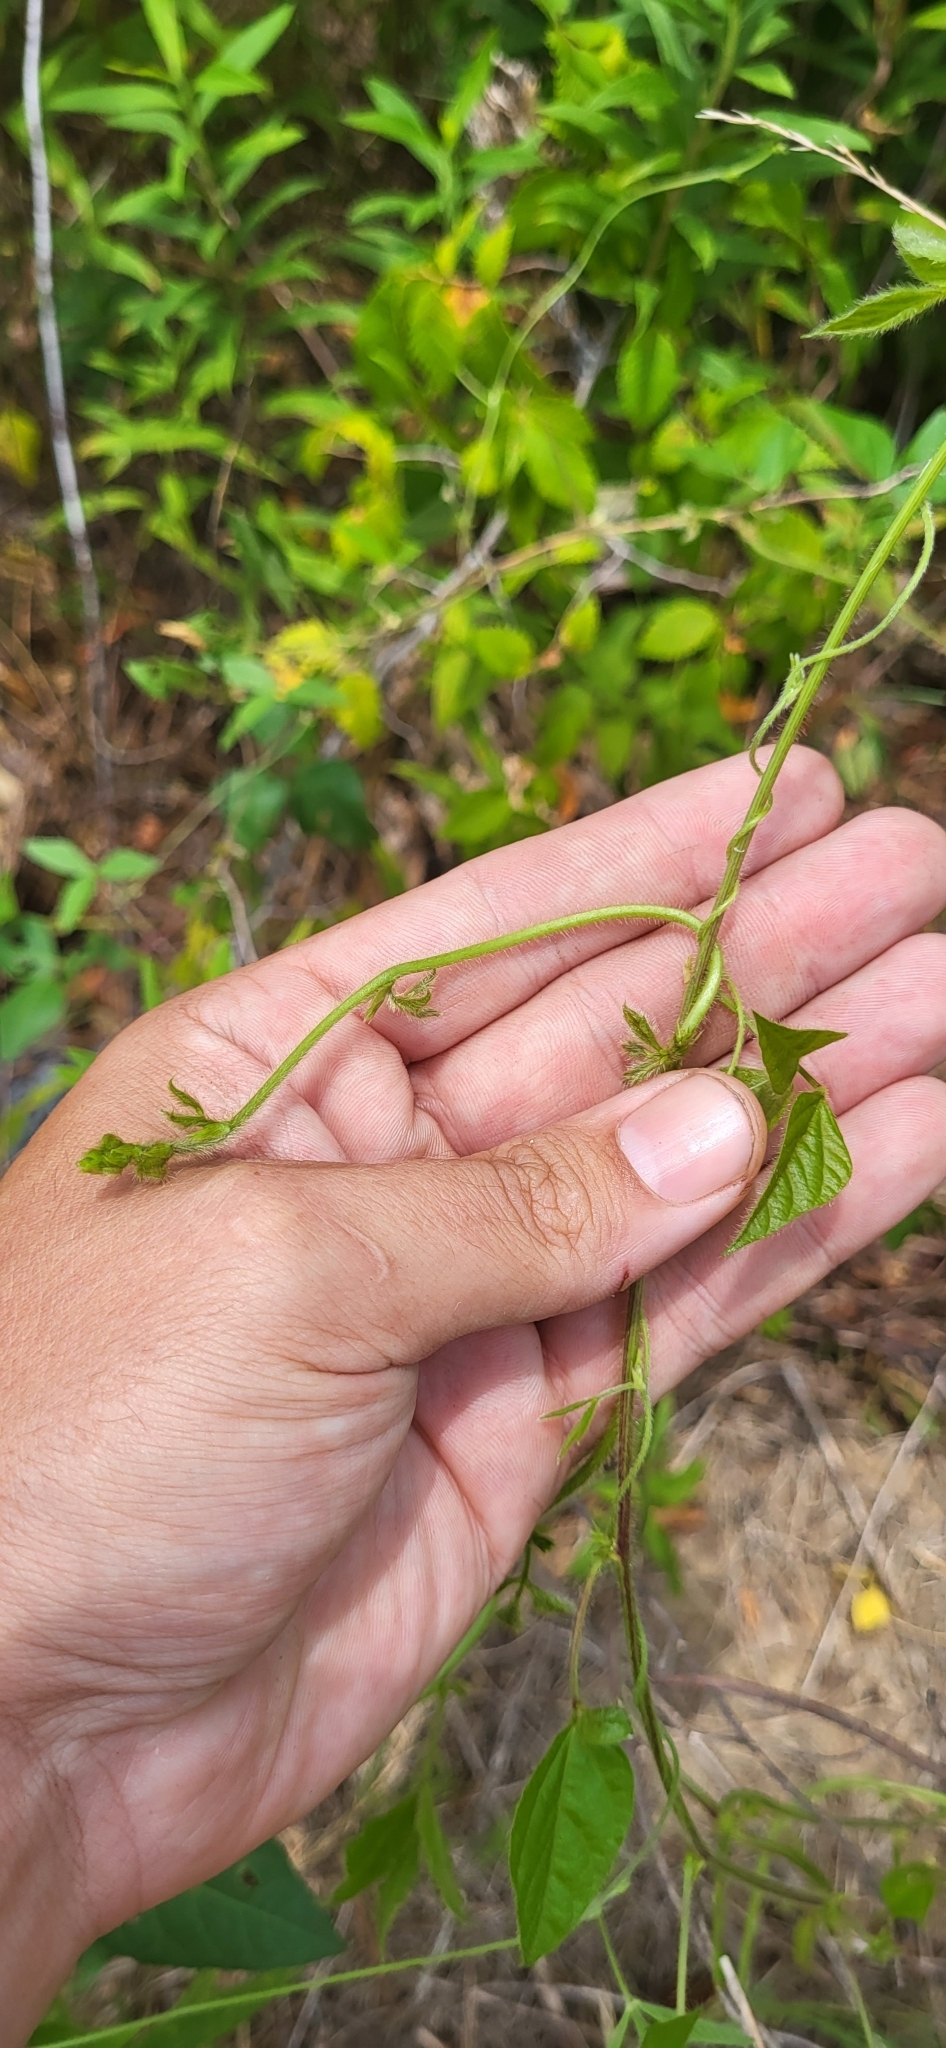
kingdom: Plantae
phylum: Tracheophyta
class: Magnoliopsida
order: Fabales
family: Fabaceae
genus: Strophostyles
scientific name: Strophostyles helvola
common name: Trailing wild bean
